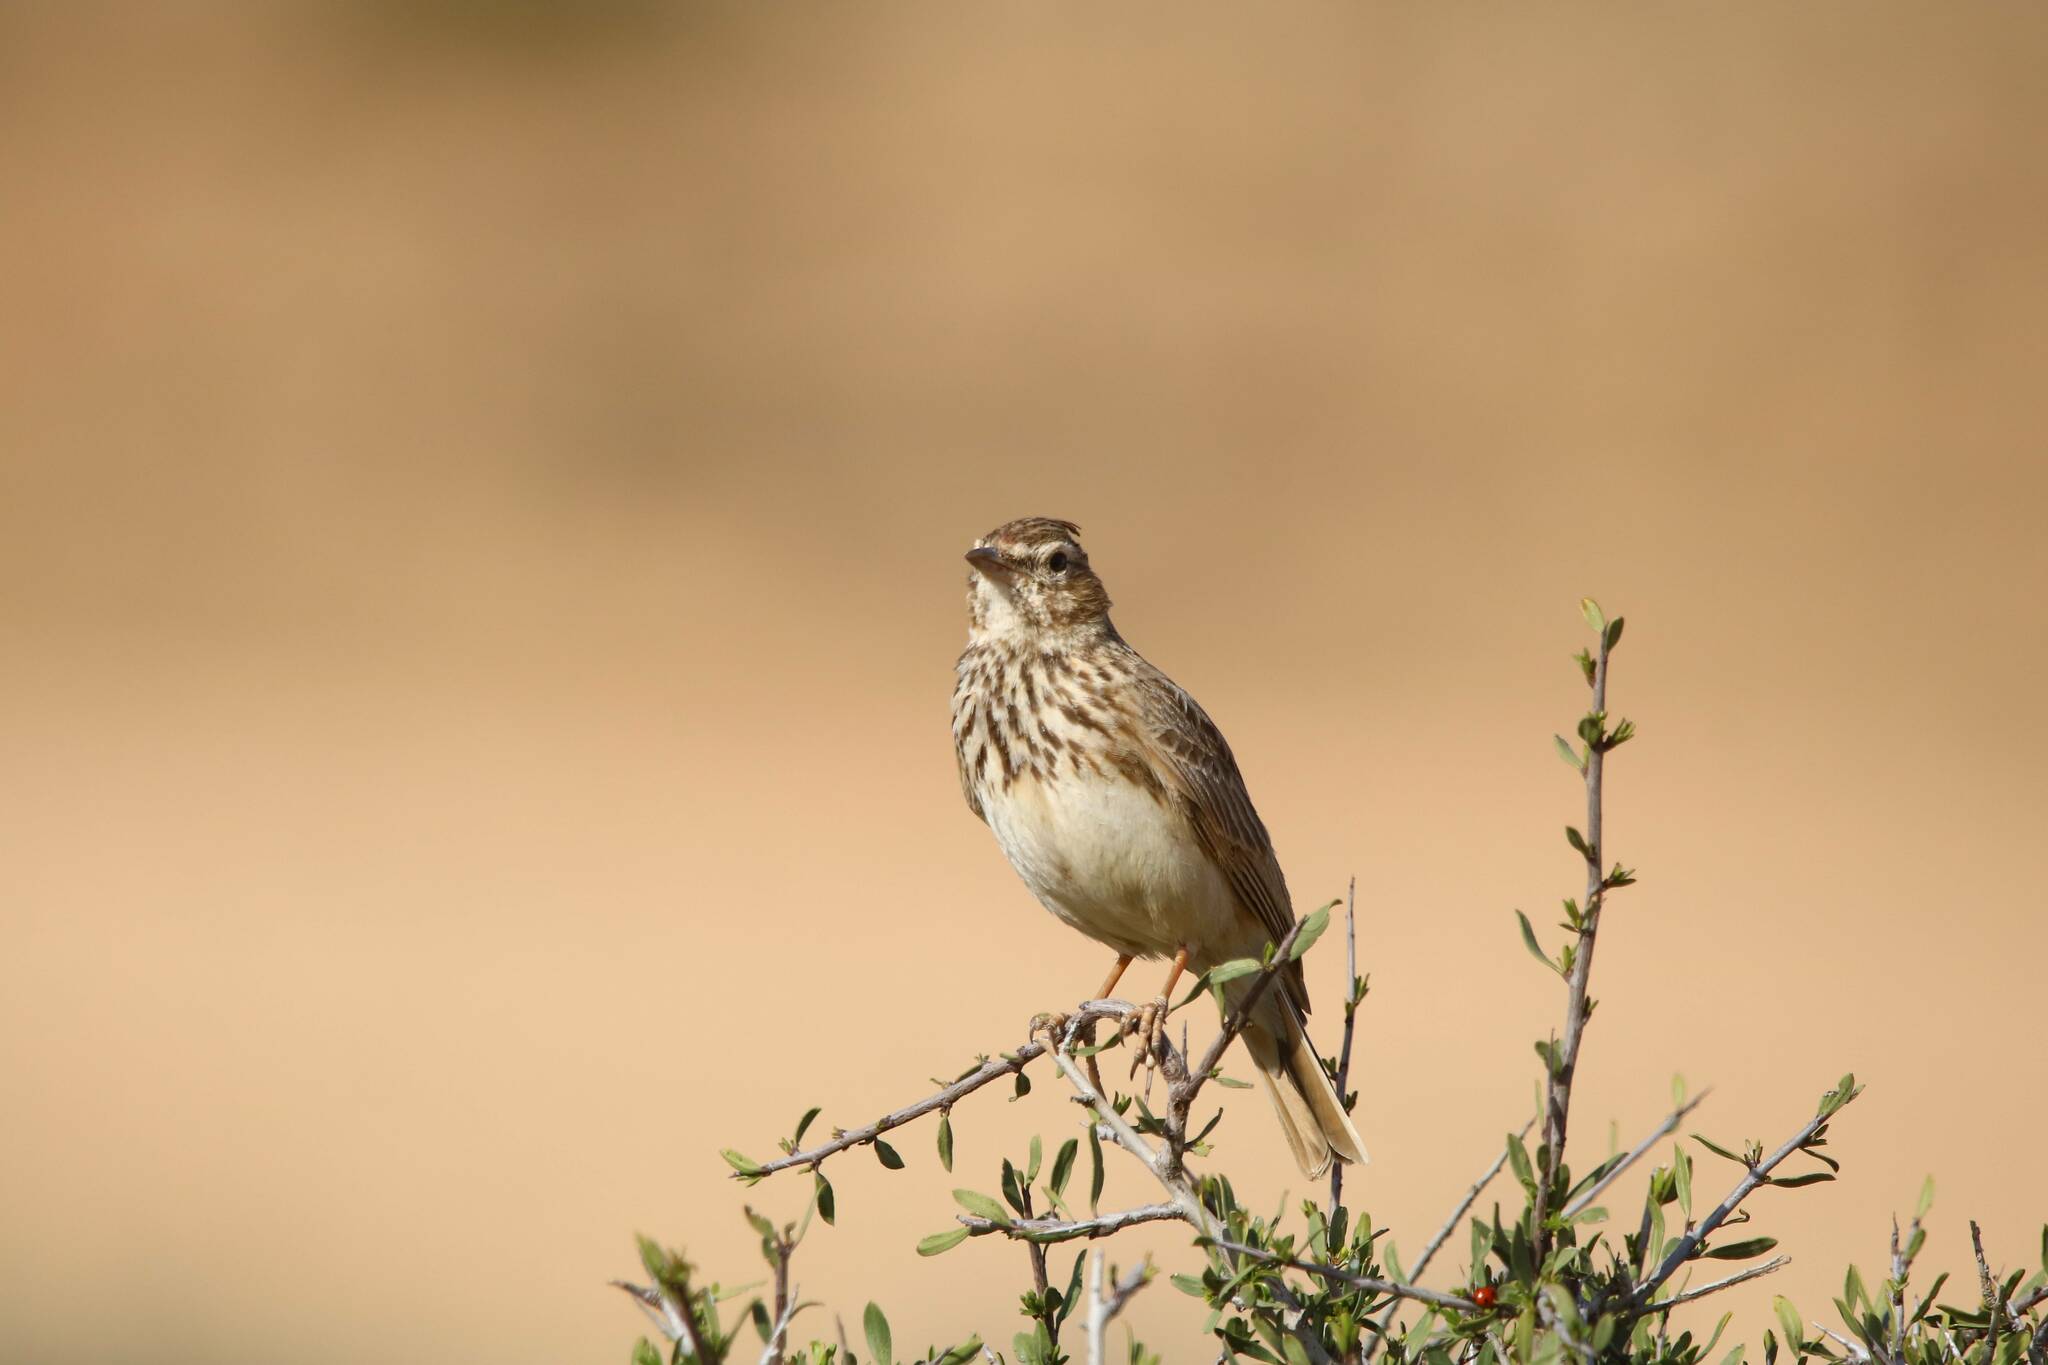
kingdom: Animalia
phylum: Chordata
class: Aves
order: Passeriformes
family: Alaudidae
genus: Galerida
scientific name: Galerida theklae
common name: Thekla lark
